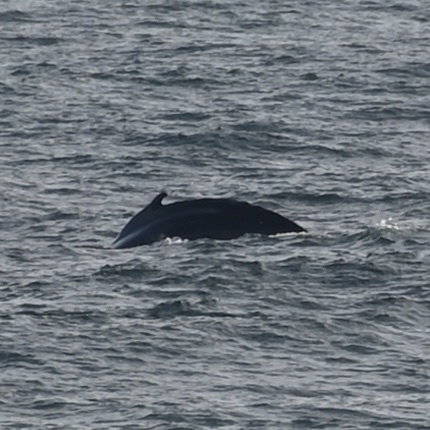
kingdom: Animalia
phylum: Chordata
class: Mammalia
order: Cetacea
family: Balaenopteridae
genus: Megaptera
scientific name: Megaptera novaeangliae
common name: Humpback whale
